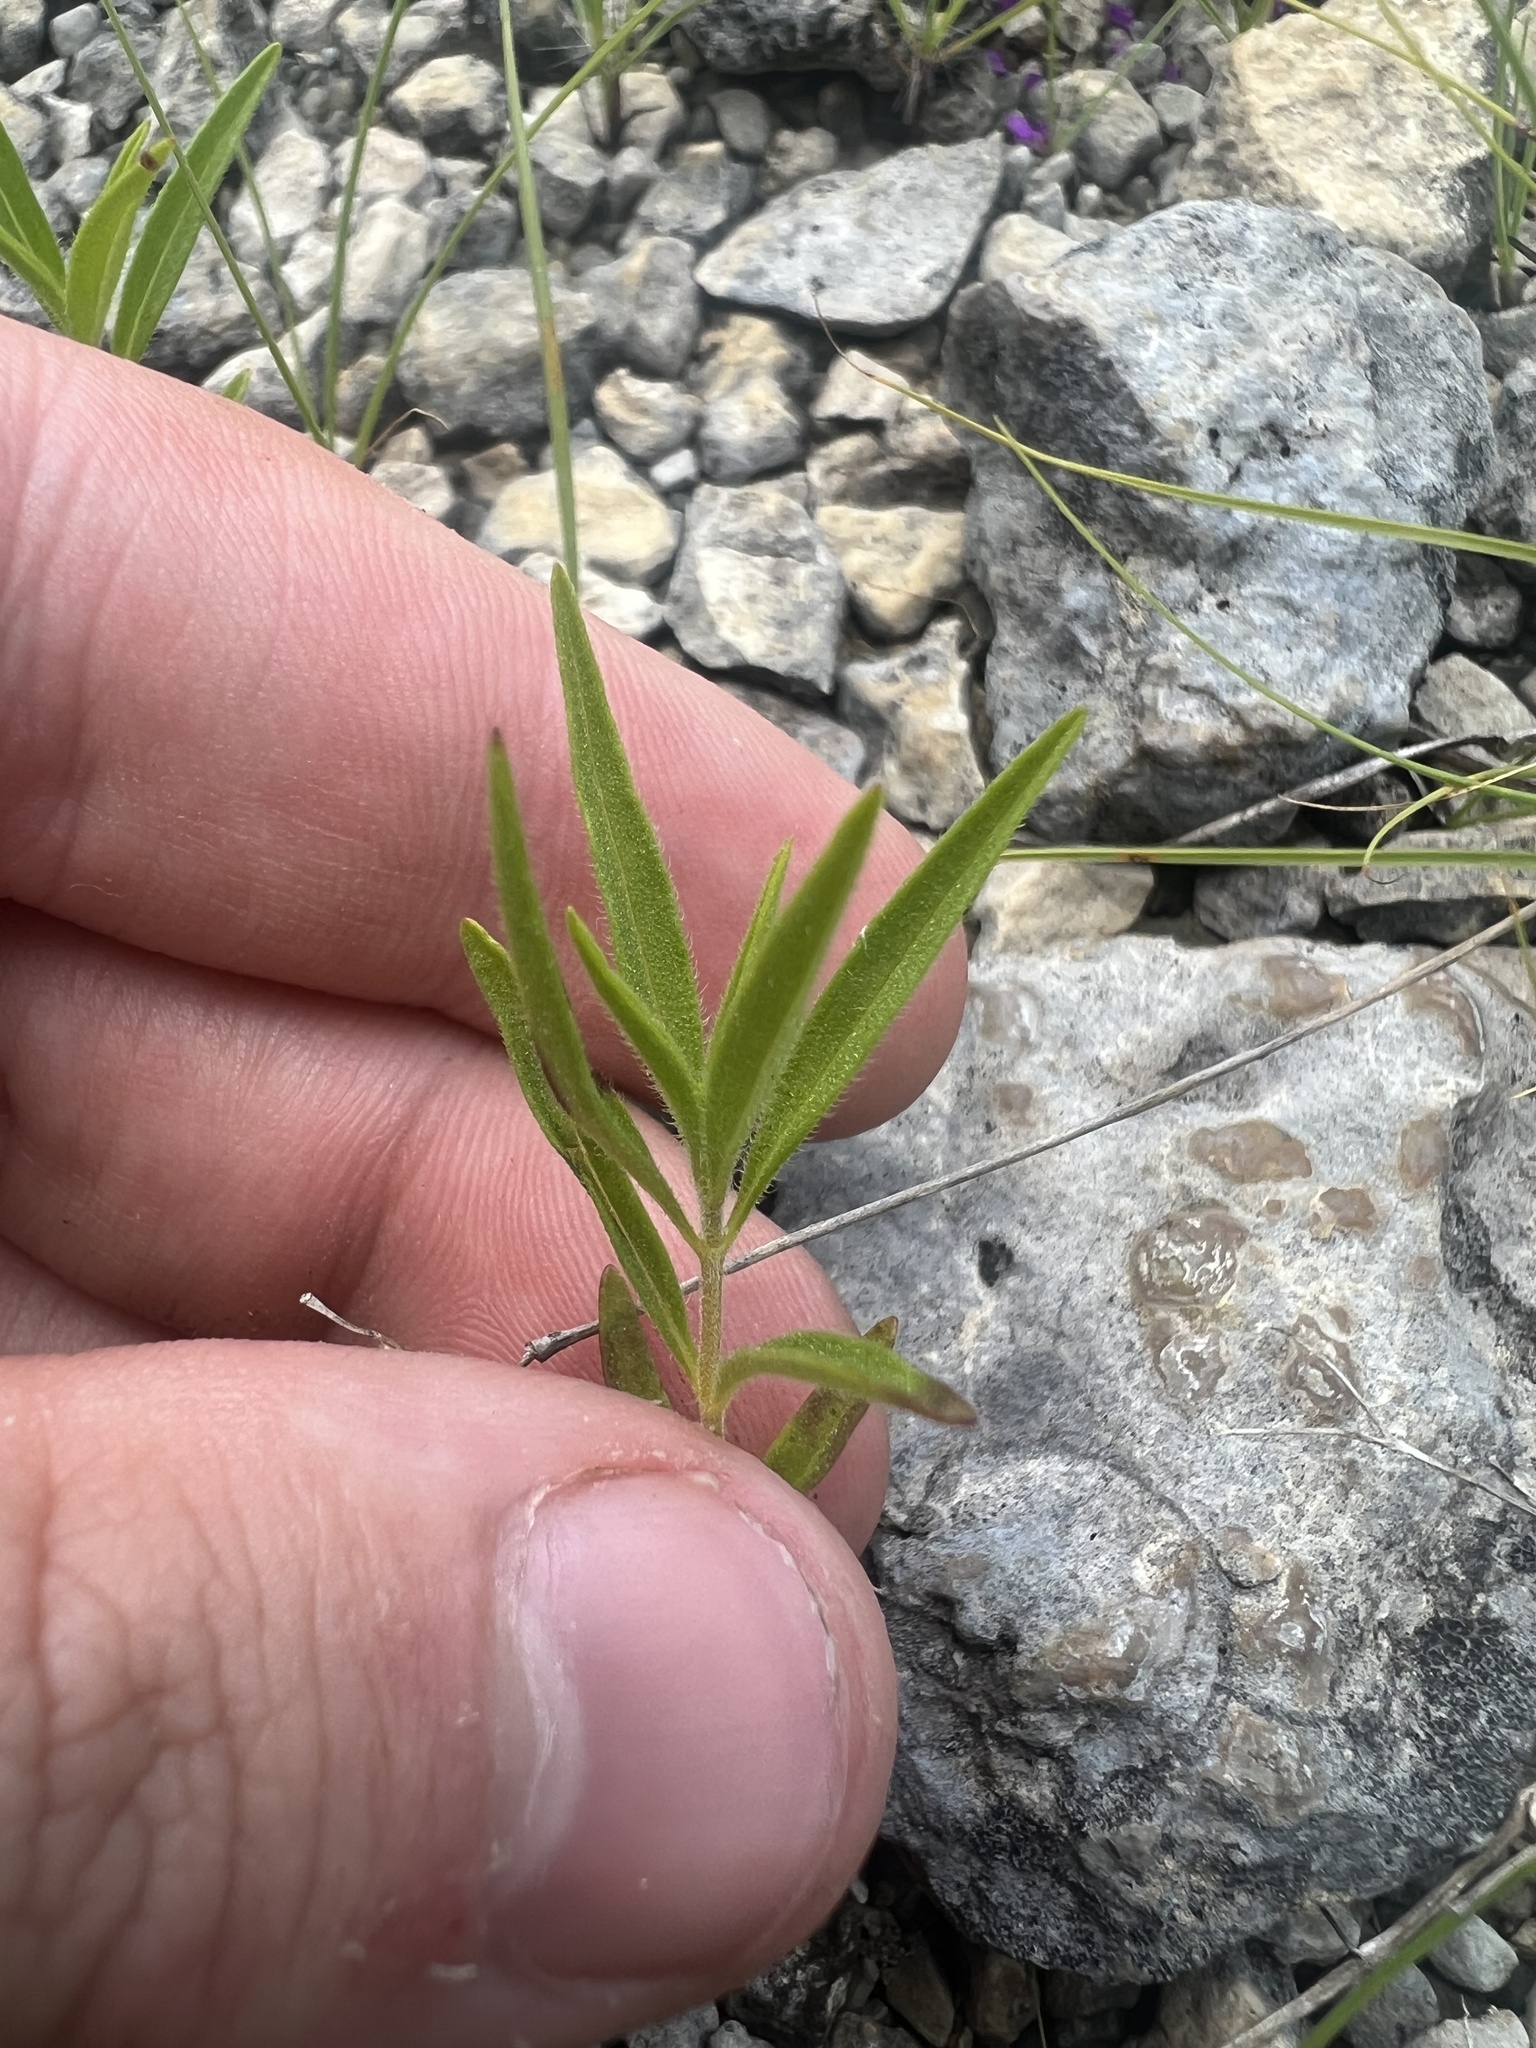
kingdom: Plantae
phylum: Tracheophyta
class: Magnoliopsida
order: Lamiales
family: Lamiaceae
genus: Trichostema
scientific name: Trichostema brachiatum
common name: False pennyroyal
